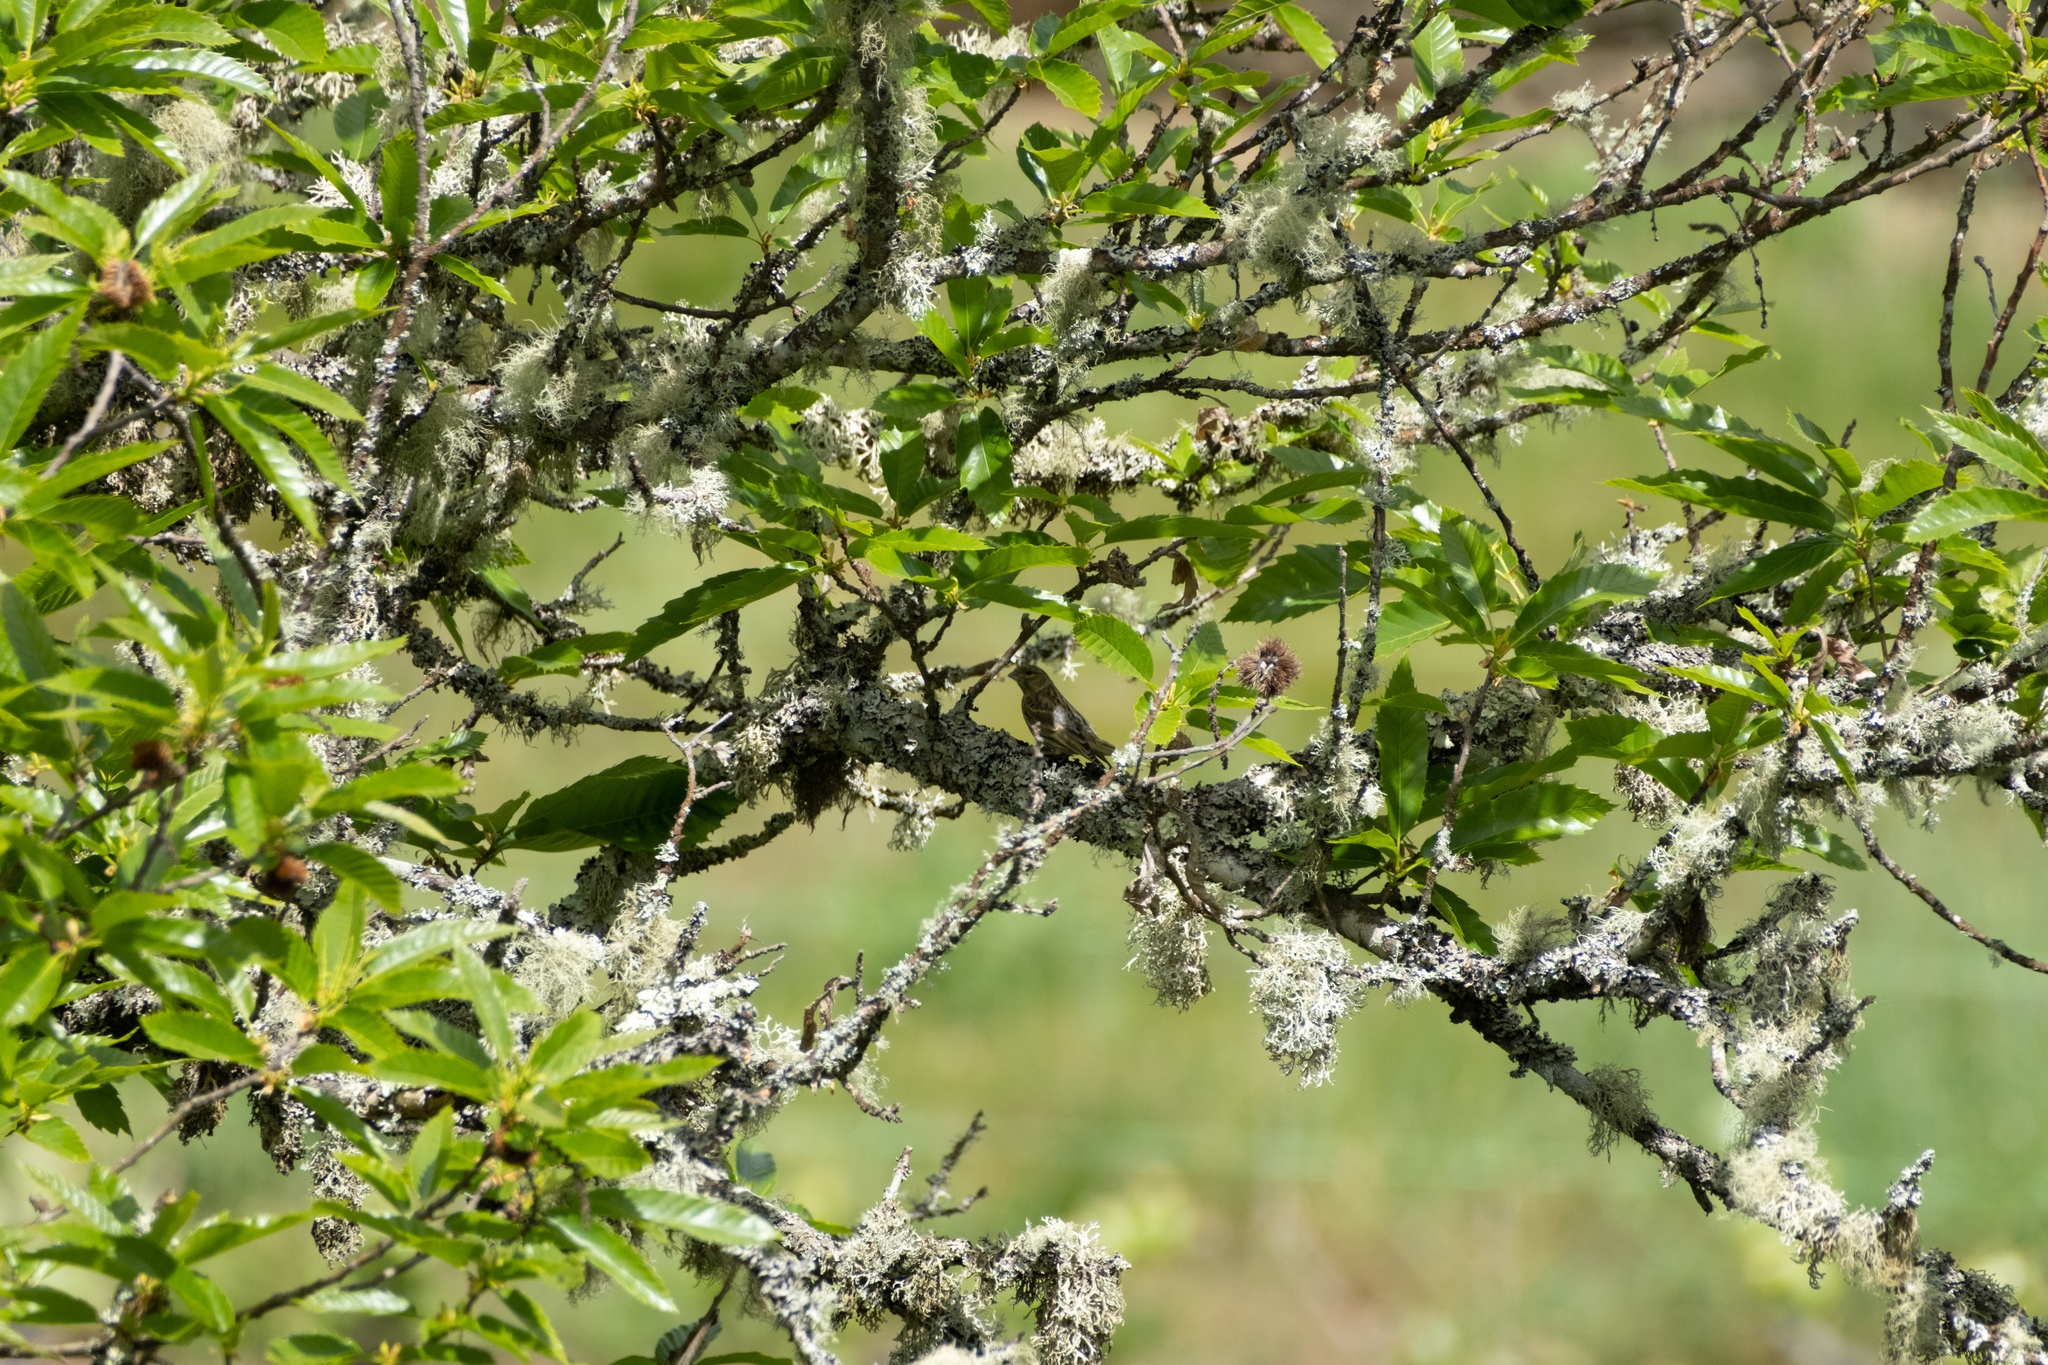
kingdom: Animalia
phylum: Chordata
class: Aves
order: Passeriformes
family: Fringillidae
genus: Serinus
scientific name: Serinus serinus
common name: European serin
